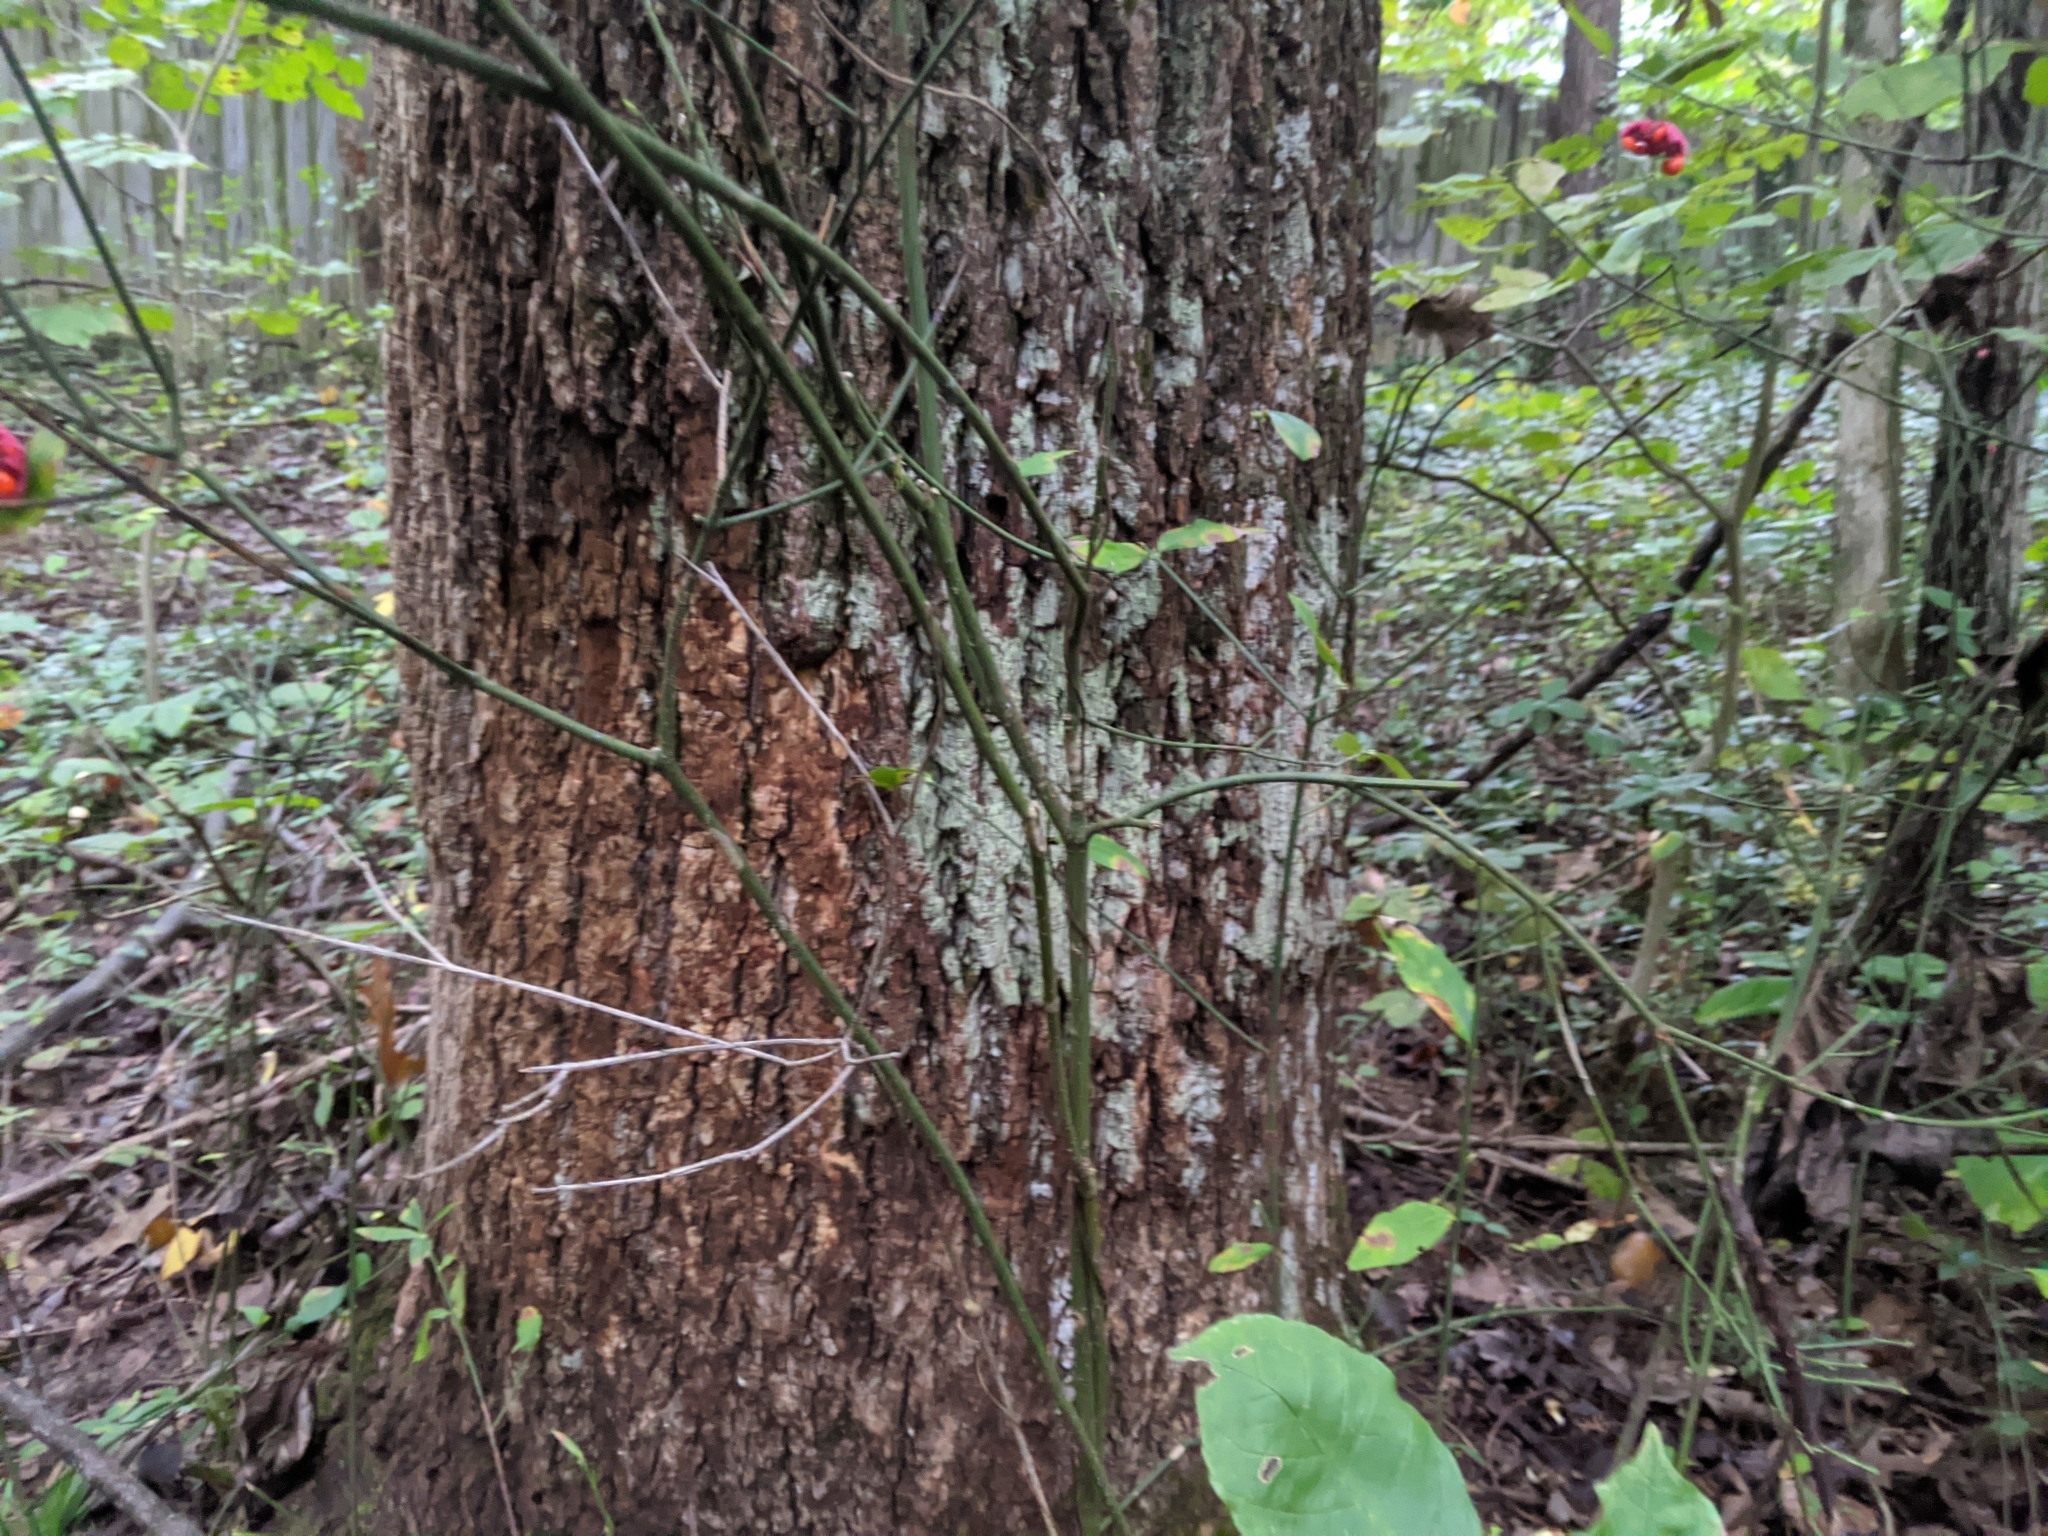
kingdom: Plantae
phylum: Tracheophyta
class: Magnoliopsida
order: Celastrales
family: Celastraceae
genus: Euonymus
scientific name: Euonymus americanus
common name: Bursting-heart
